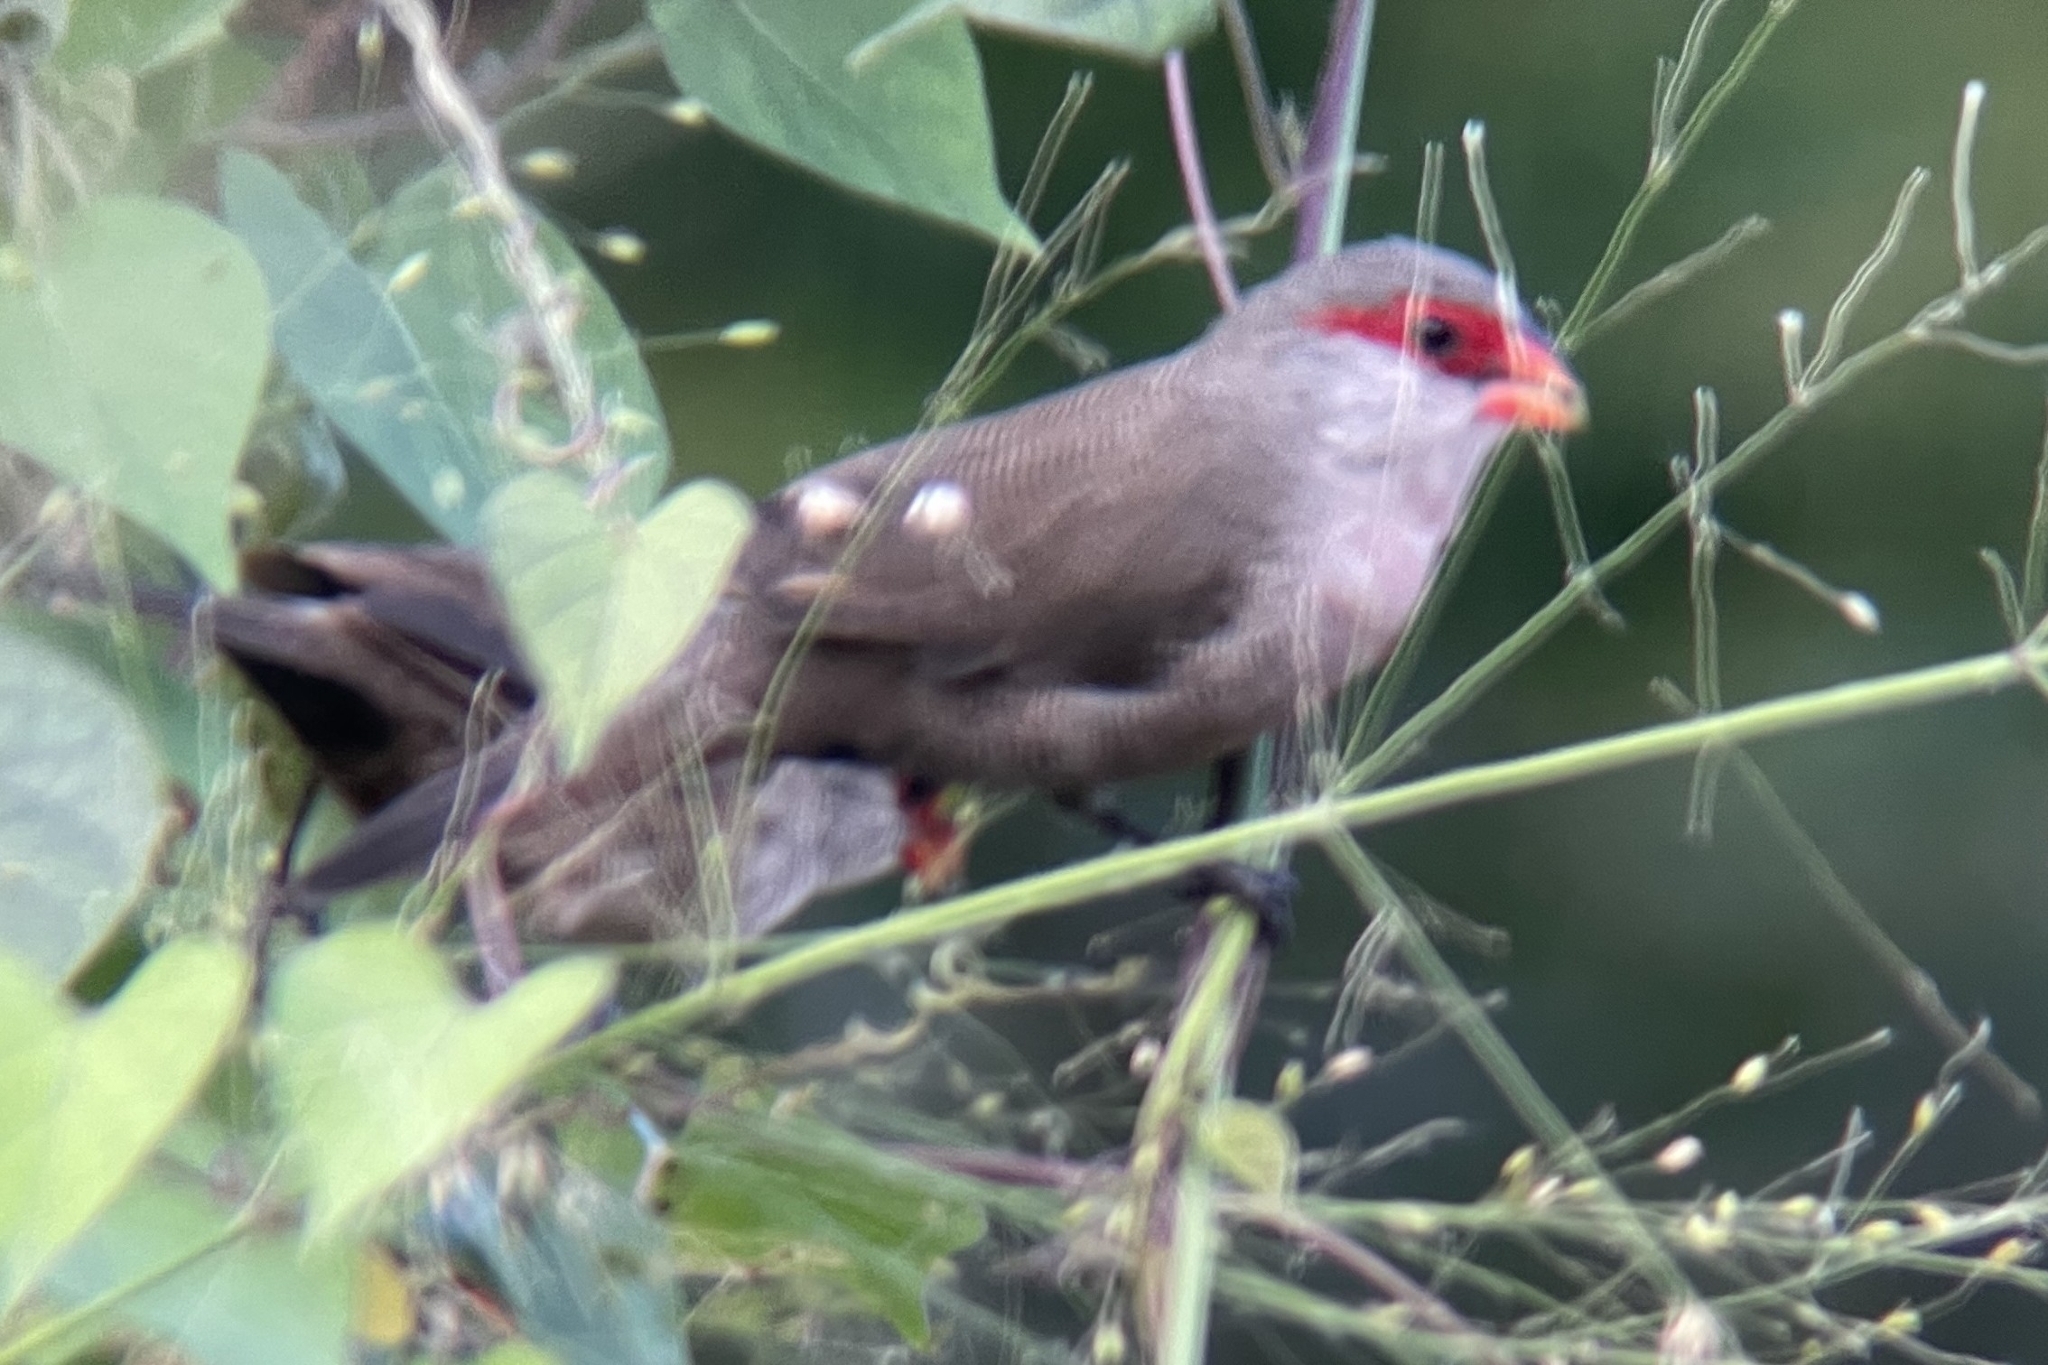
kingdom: Animalia
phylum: Chordata
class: Aves
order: Passeriformes
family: Estrildidae
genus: Estrilda
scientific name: Estrilda astrild
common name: Common waxbill
